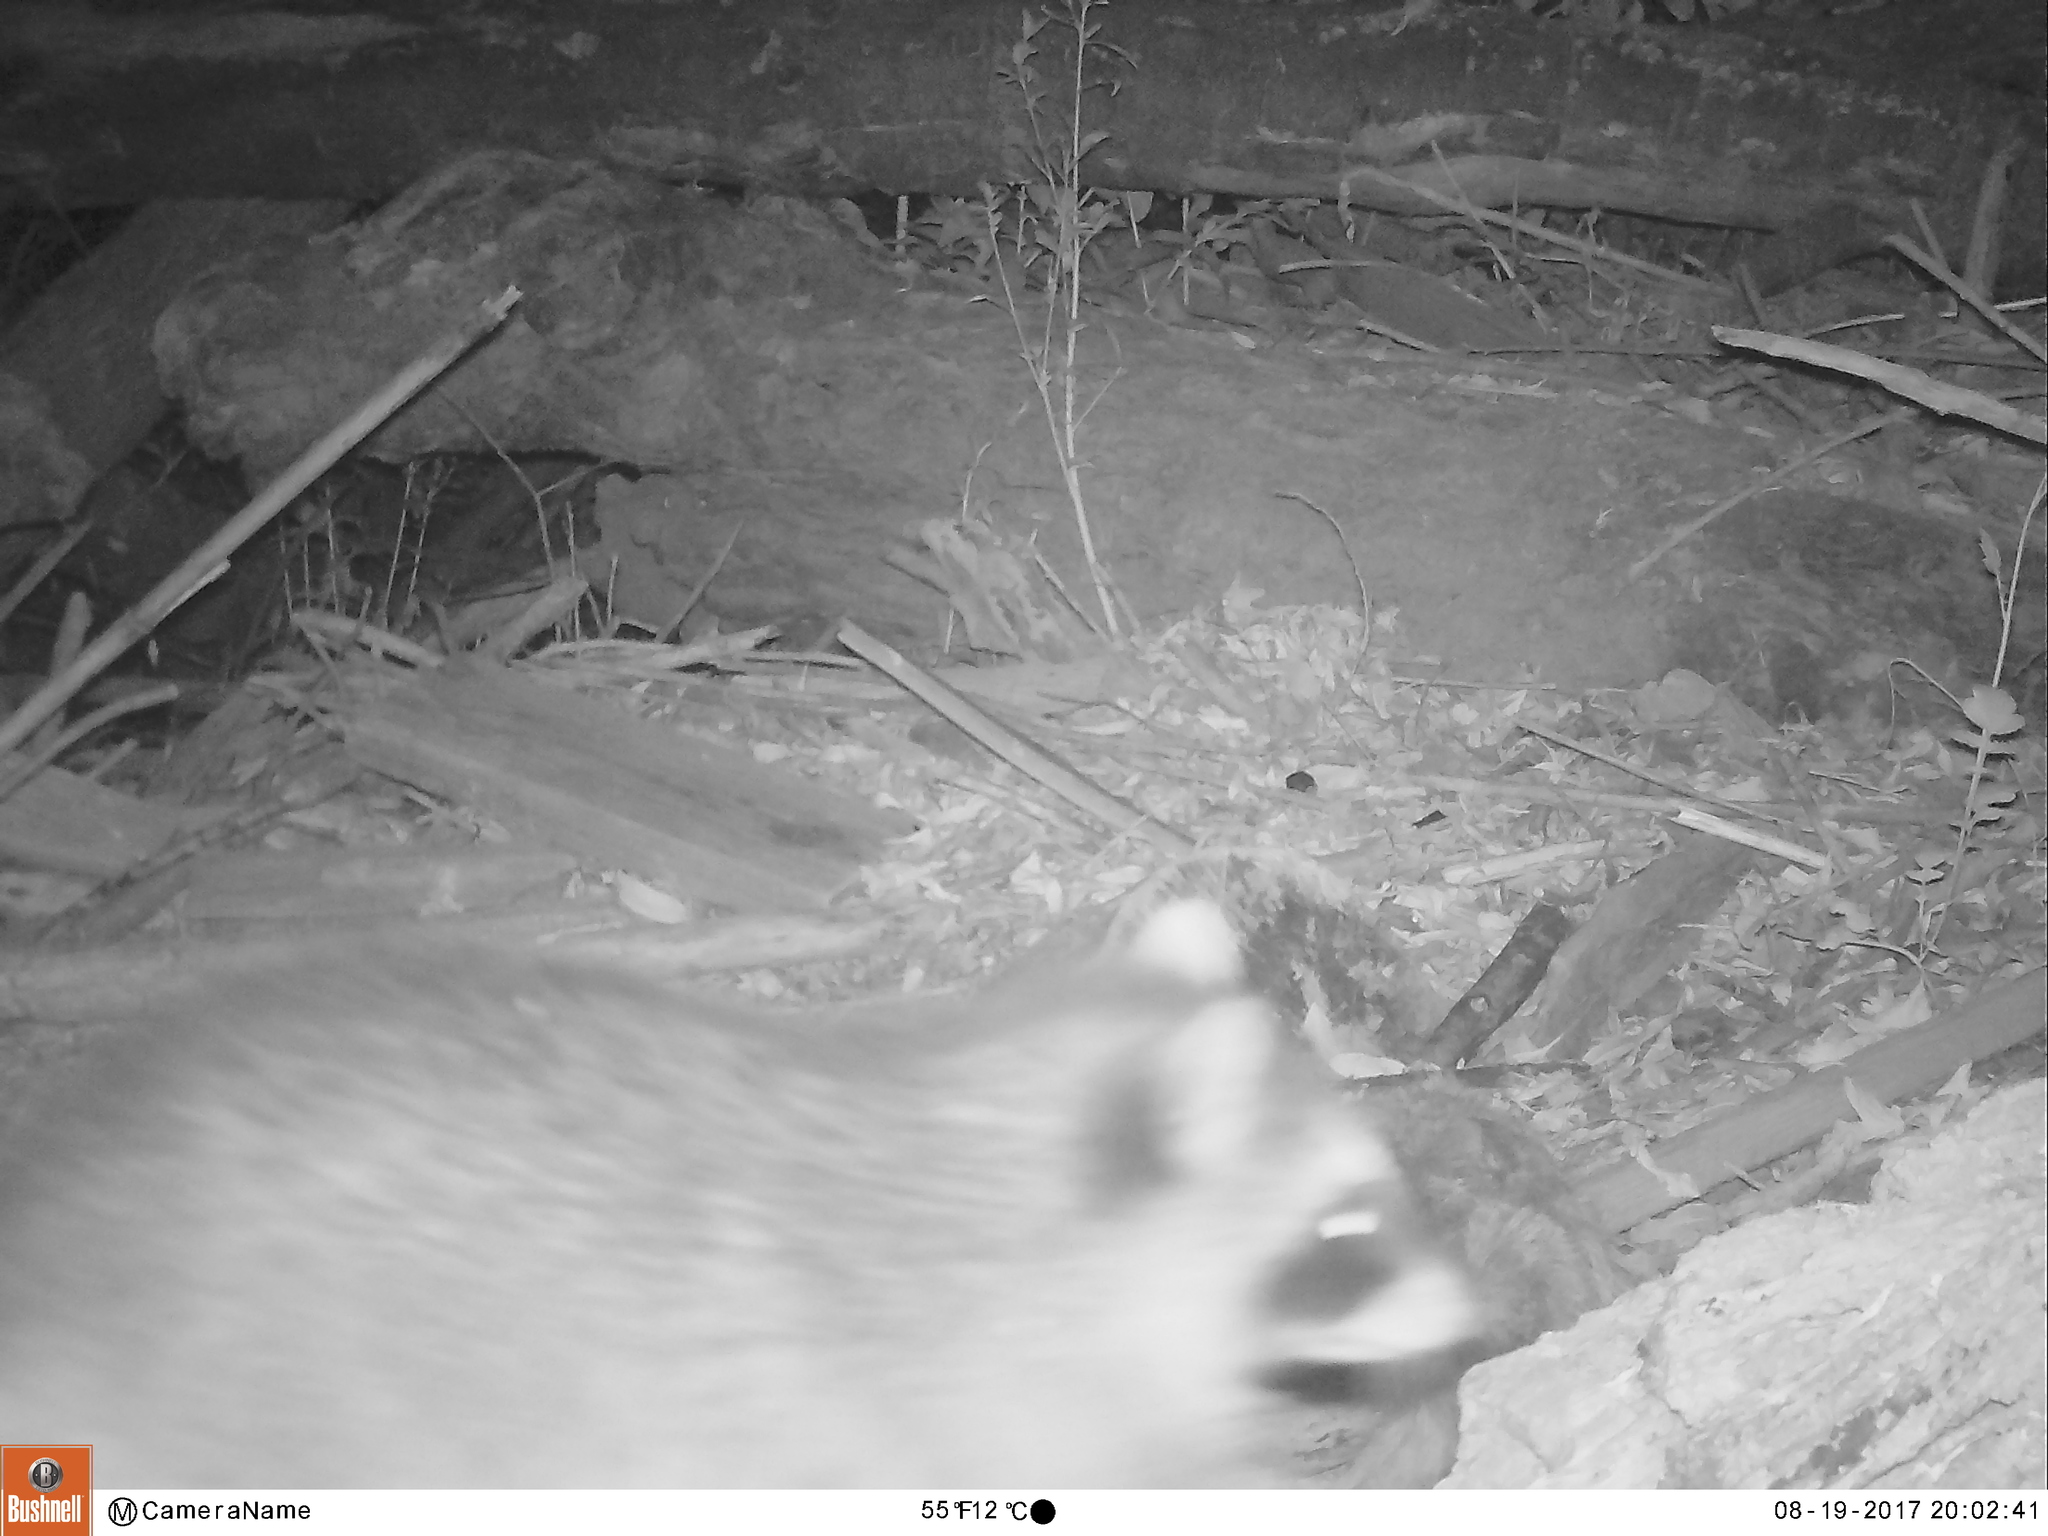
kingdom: Animalia
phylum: Chordata
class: Mammalia
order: Carnivora
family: Procyonidae
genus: Procyon
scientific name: Procyon lotor
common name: Raccoon
